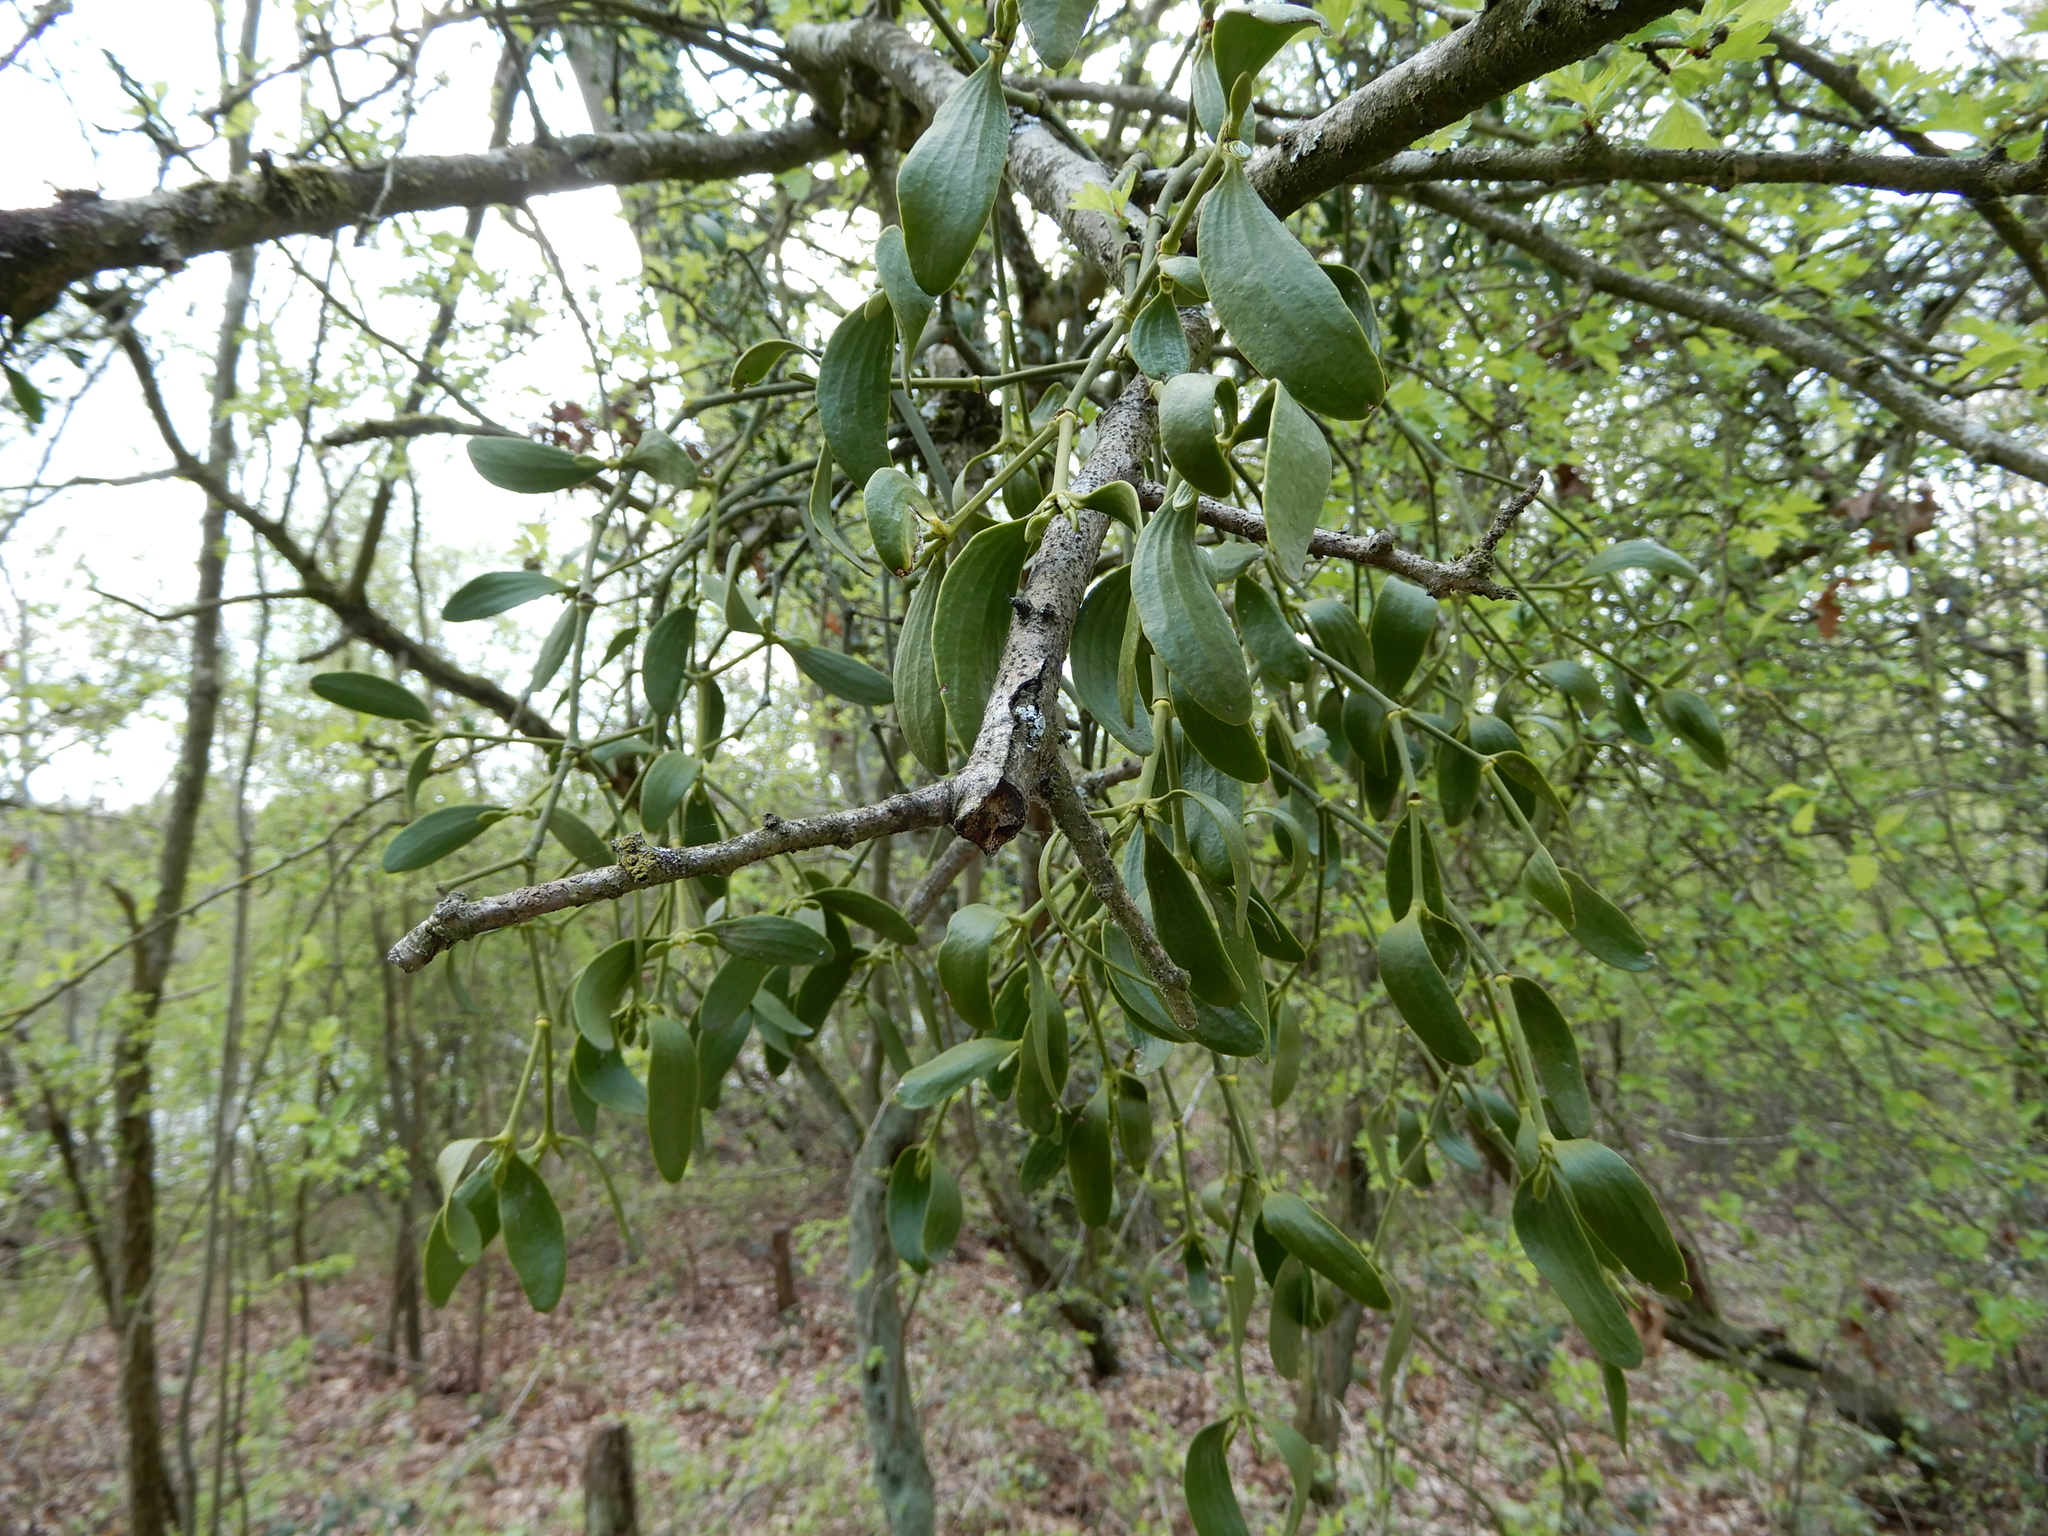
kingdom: Plantae
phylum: Tracheophyta
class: Magnoliopsida
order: Santalales
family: Viscaceae
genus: Viscum
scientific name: Viscum album
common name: Mistletoe
